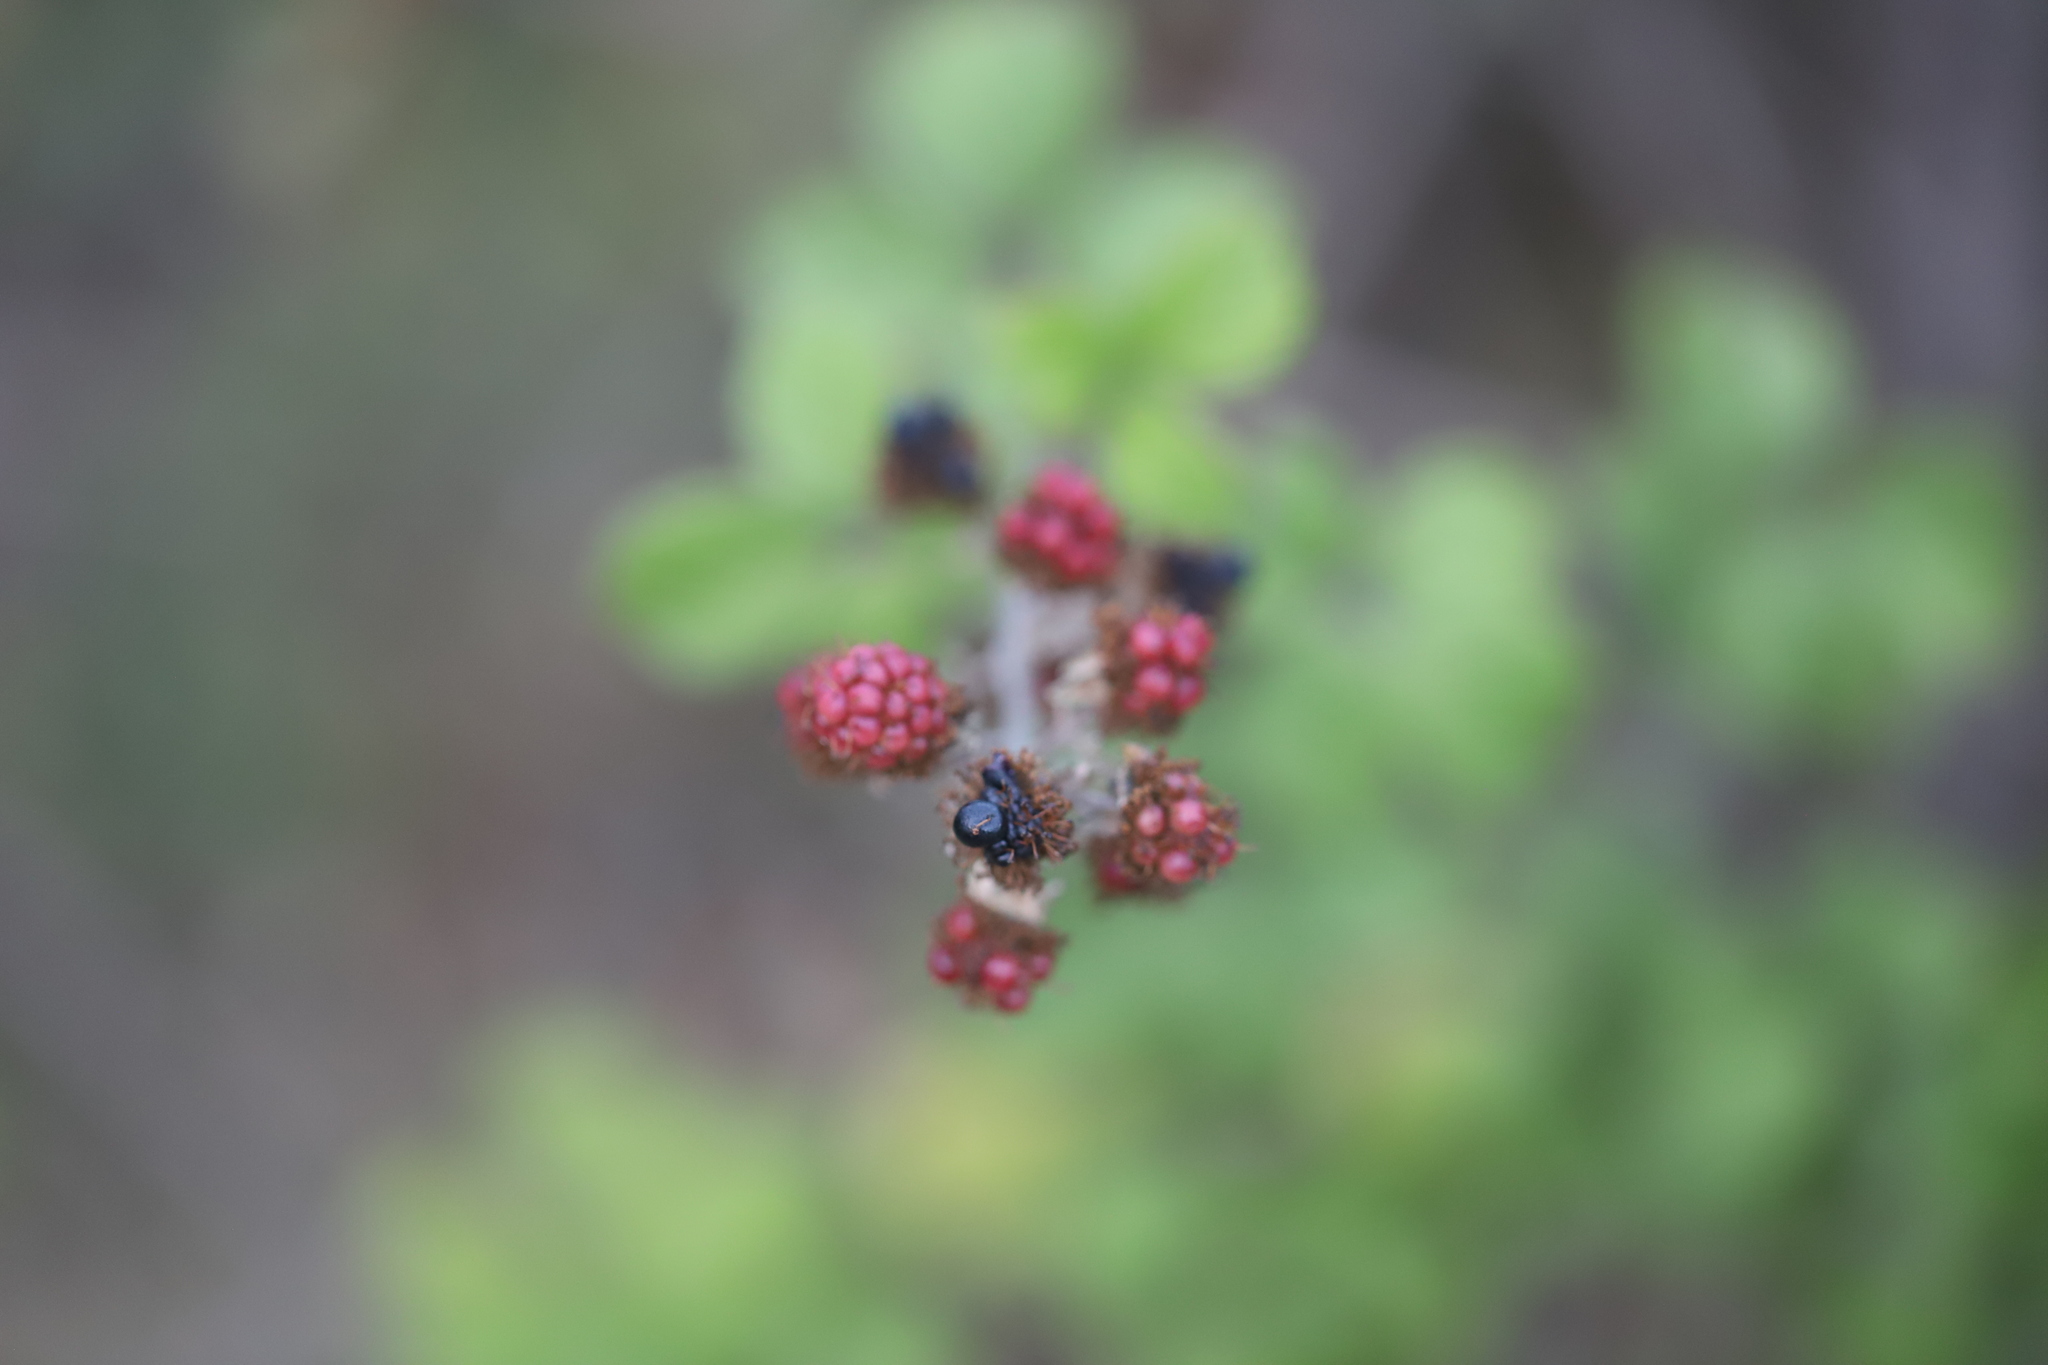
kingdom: Plantae
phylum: Tracheophyta
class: Magnoliopsida
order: Rosales
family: Rosaceae
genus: Rubus
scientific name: Rubus ulmifolius
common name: Elmleaf blackberry
